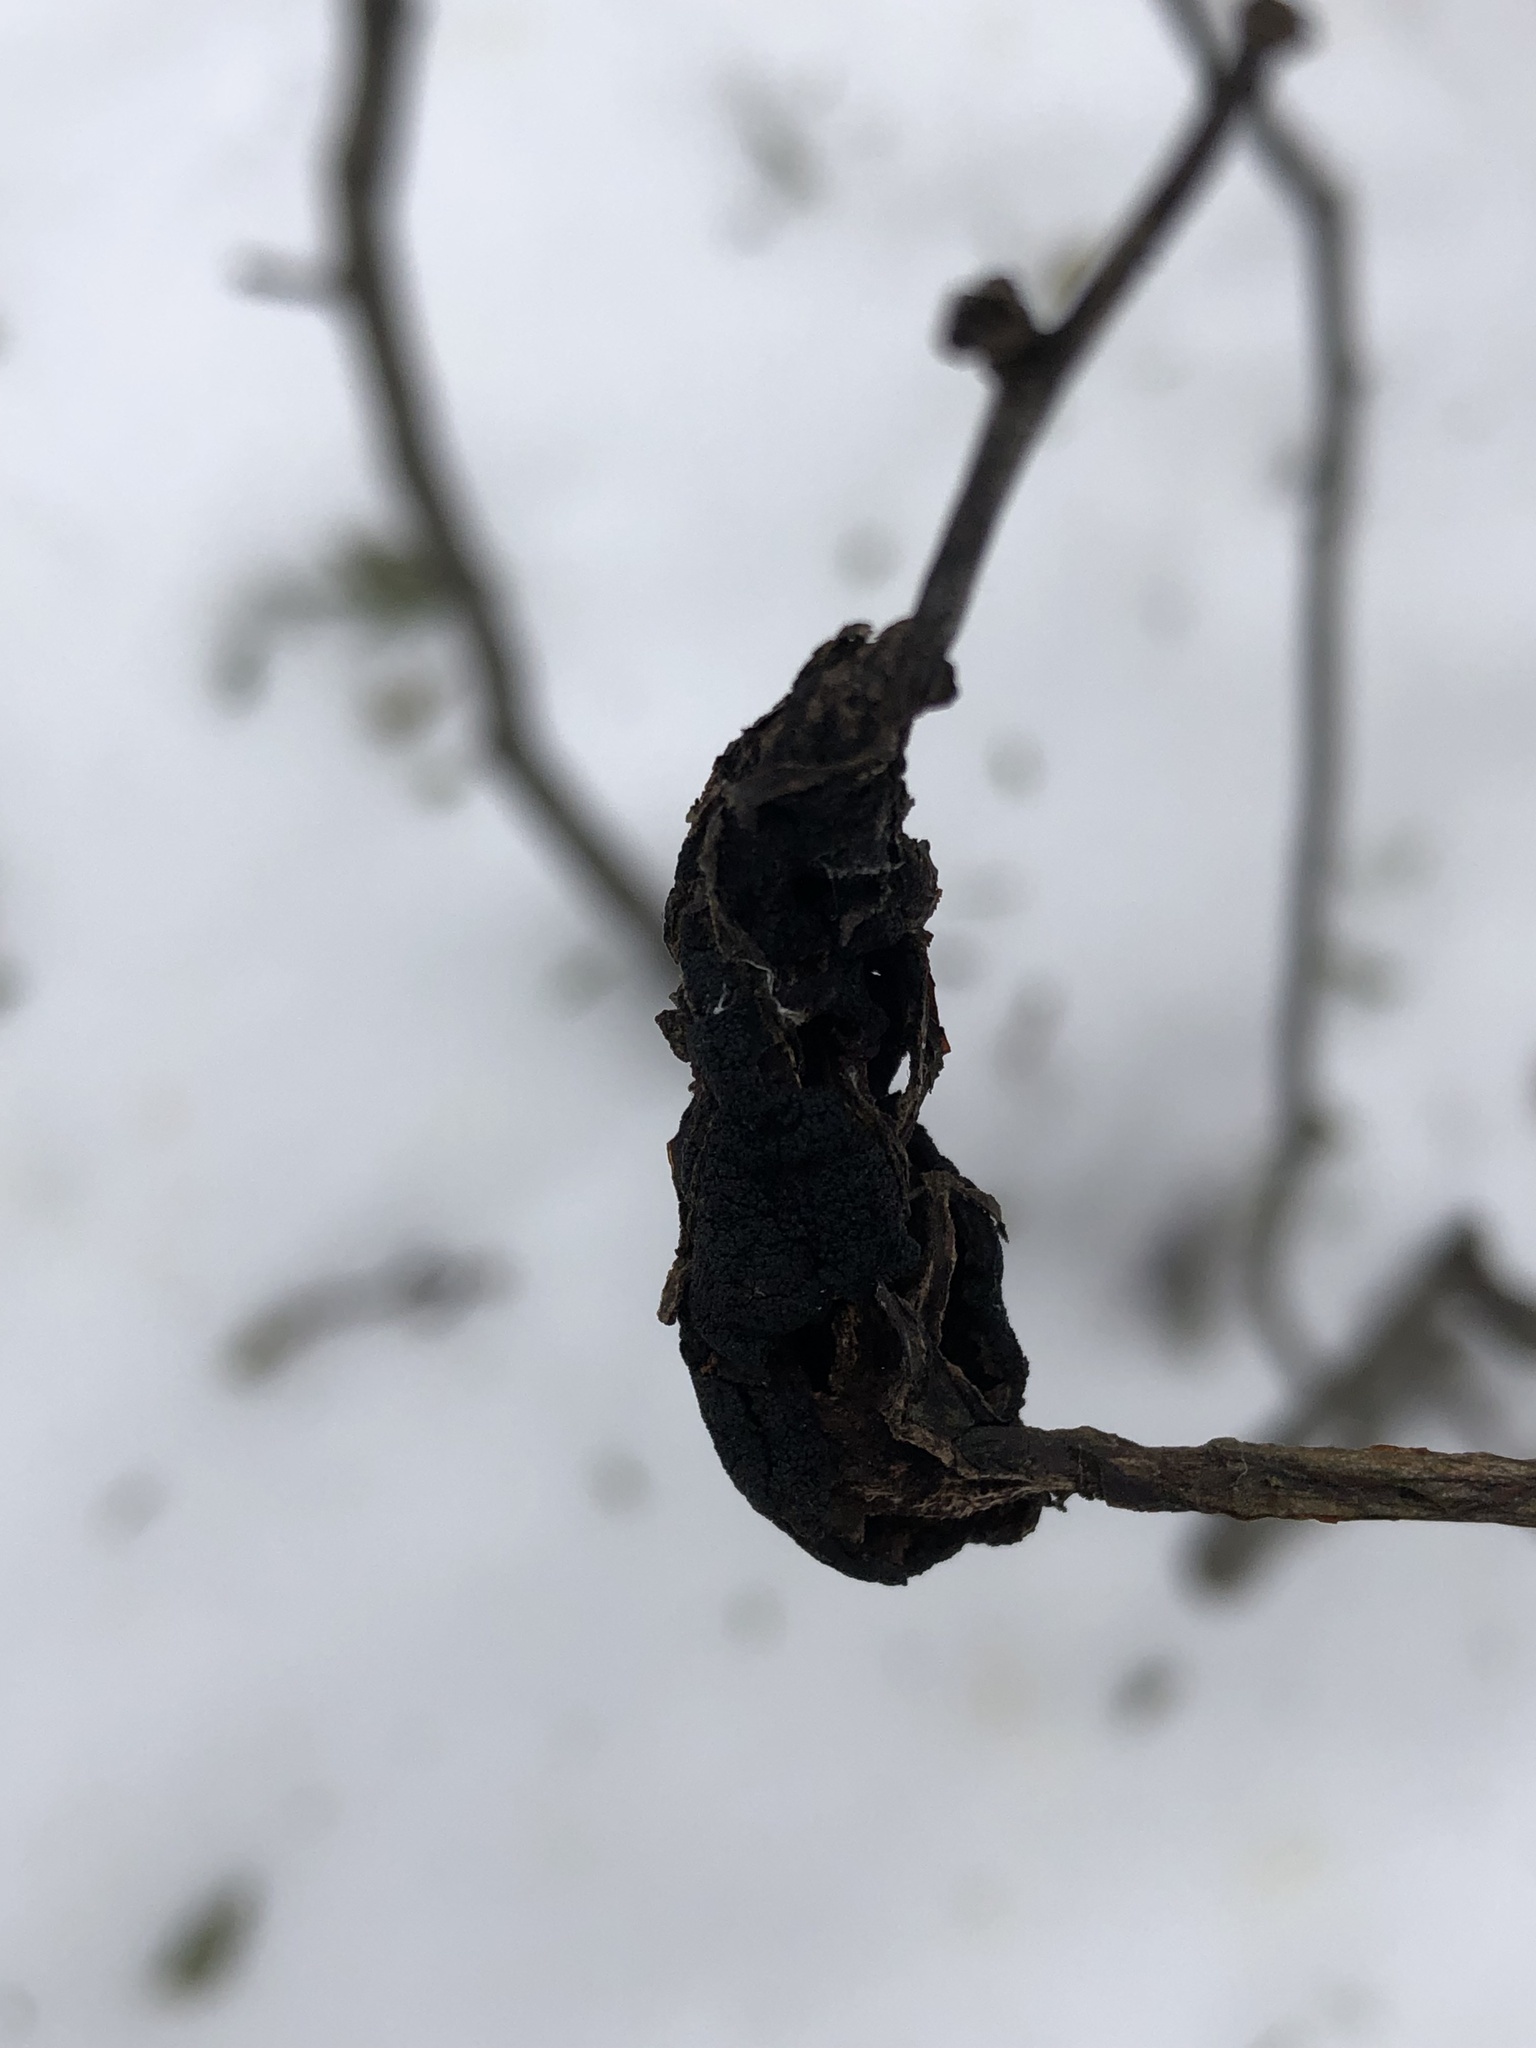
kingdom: Fungi
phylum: Ascomycota
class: Dothideomycetes
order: Venturiales
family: Venturiaceae
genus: Apiosporina
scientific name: Apiosporina morbosa
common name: Black knot
